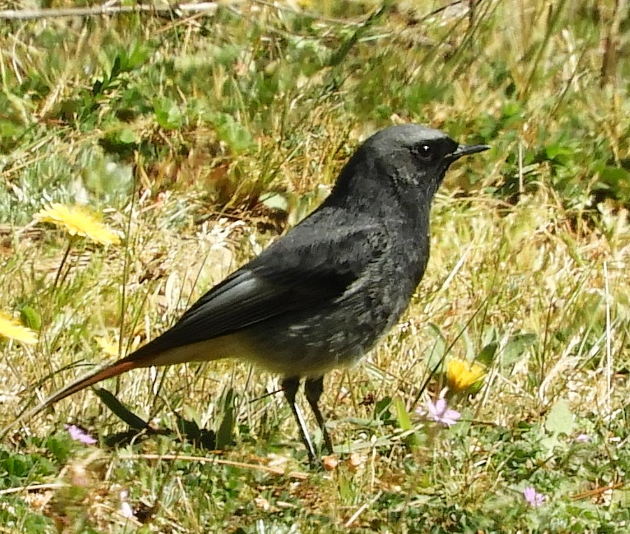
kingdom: Animalia
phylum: Chordata
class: Aves
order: Passeriformes
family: Muscicapidae
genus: Phoenicurus
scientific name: Phoenicurus ochruros
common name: Black redstart
